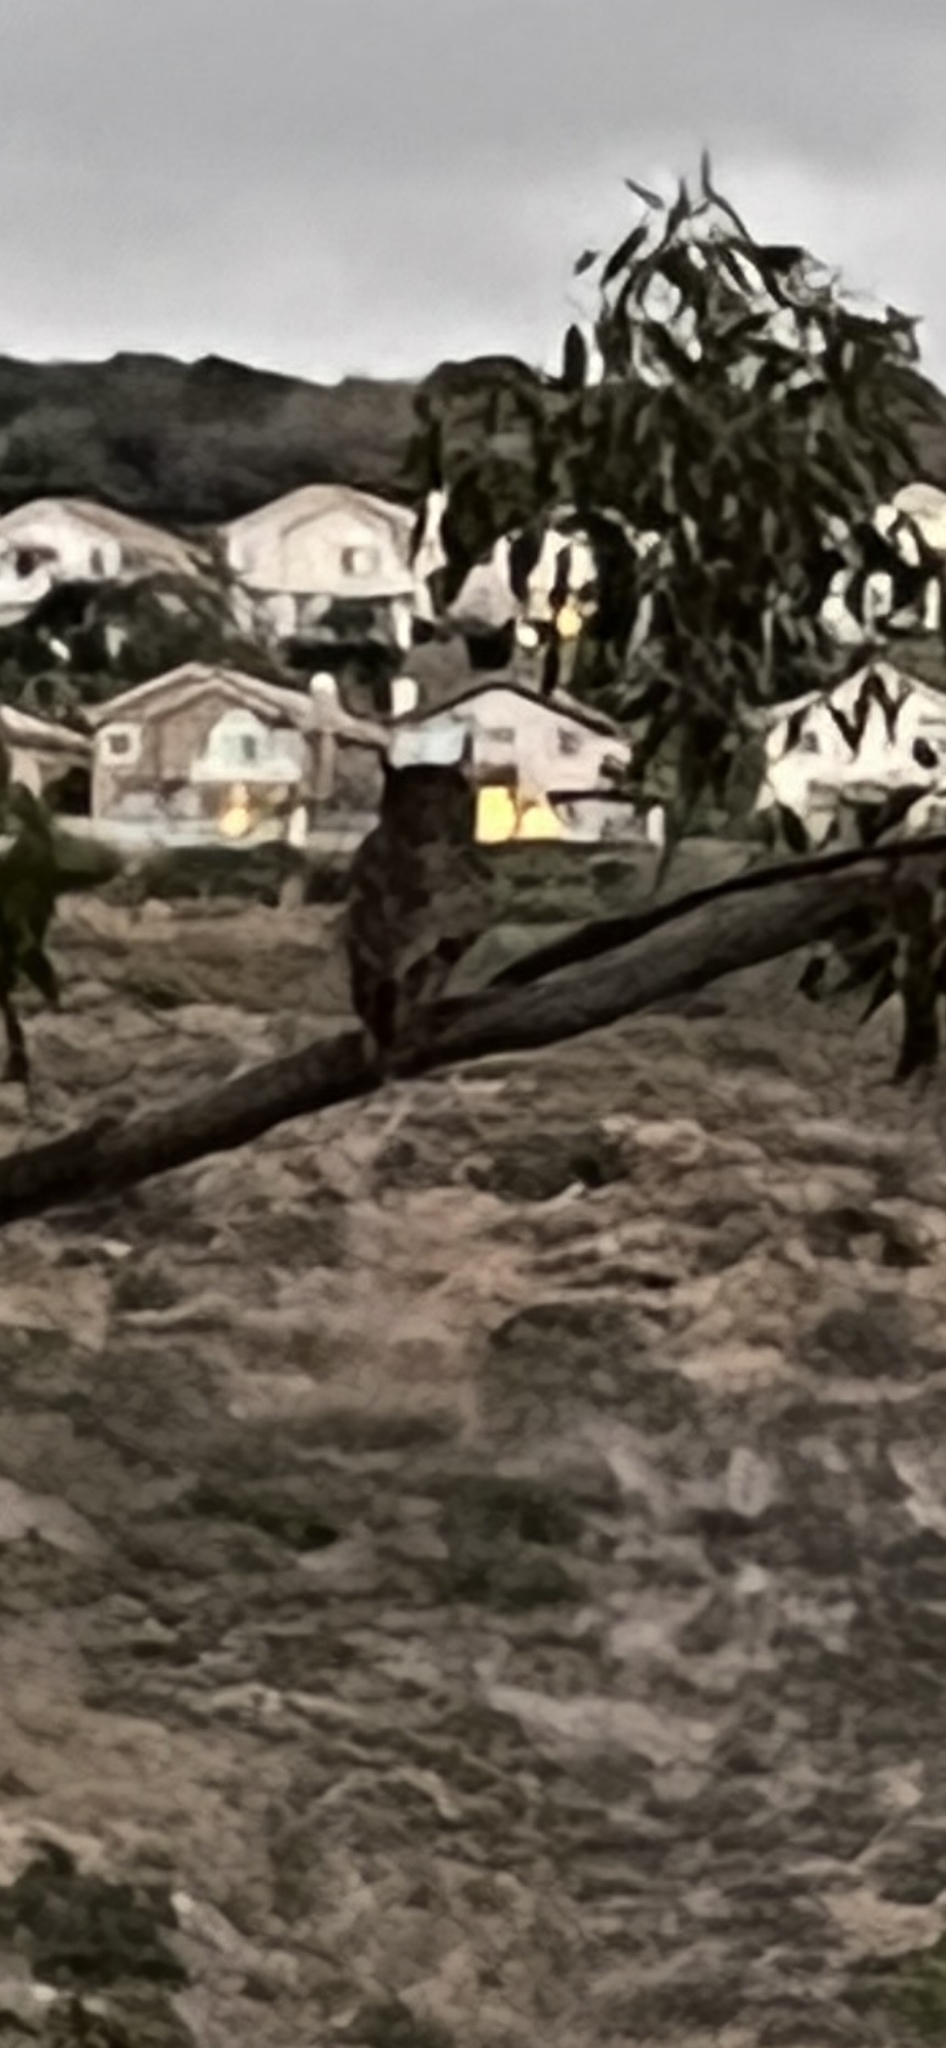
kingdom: Animalia
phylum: Chordata
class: Aves
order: Strigiformes
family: Strigidae
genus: Bubo
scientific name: Bubo virginianus
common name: Great horned owl
